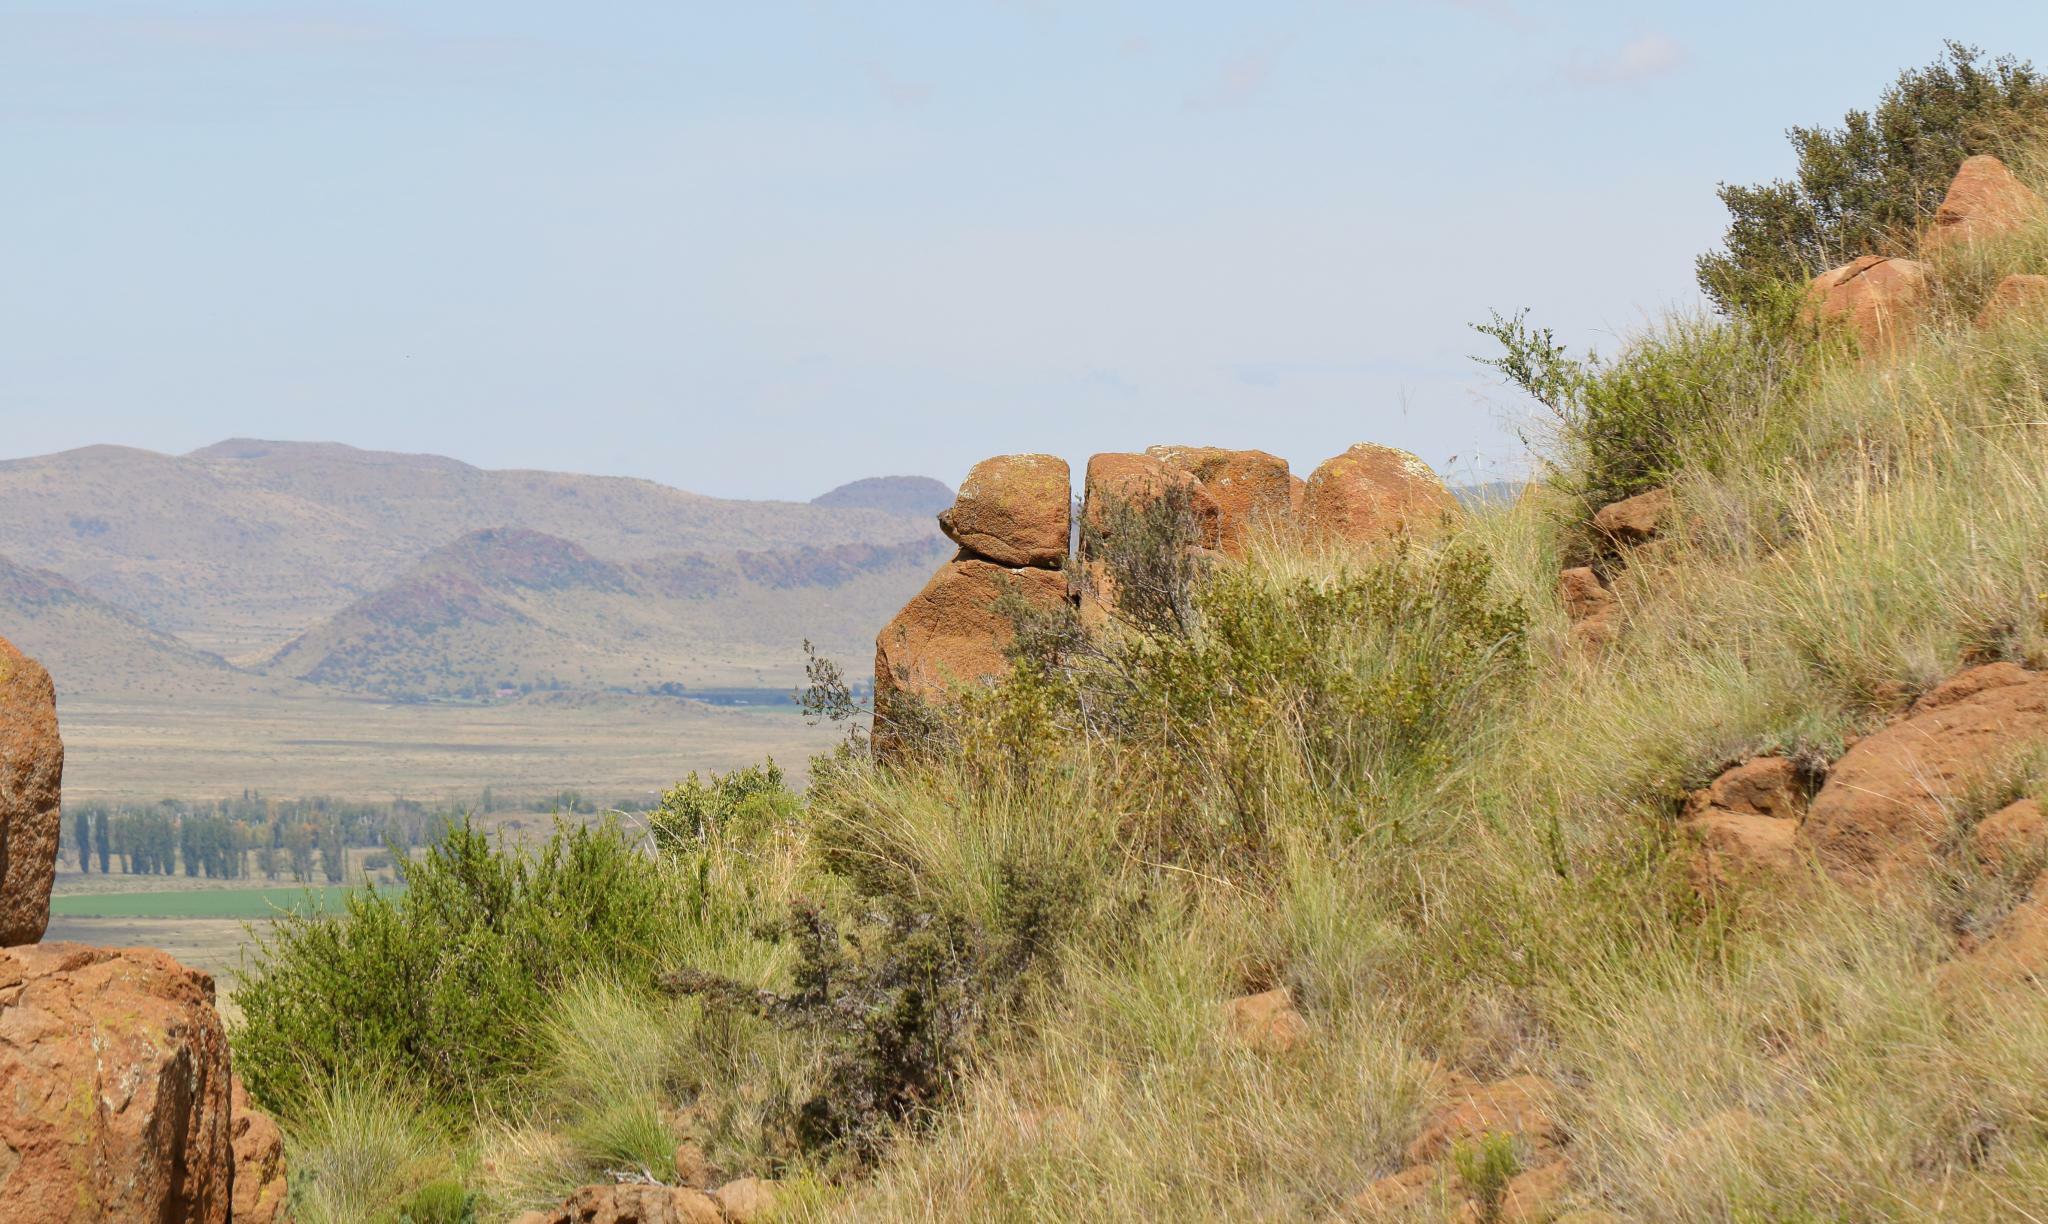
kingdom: Animalia
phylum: Chordata
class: Mammalia
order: Hyracoidea
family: Procaviidae
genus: Procavia
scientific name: Procavia capensis
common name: Rock hyrax
